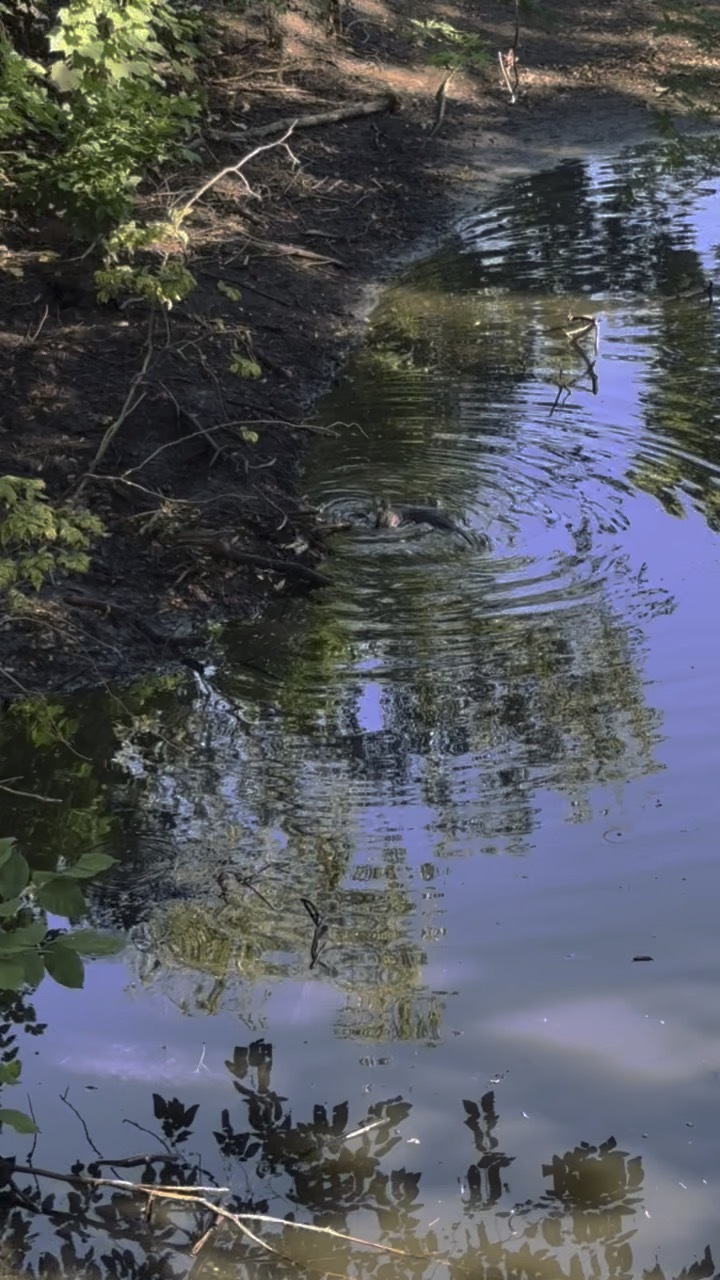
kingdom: Animalia
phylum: Chordata
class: Mammalia
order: Carnivora
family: Mustelidae
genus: Lontra
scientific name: Lontra canadensis
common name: North american river otter
